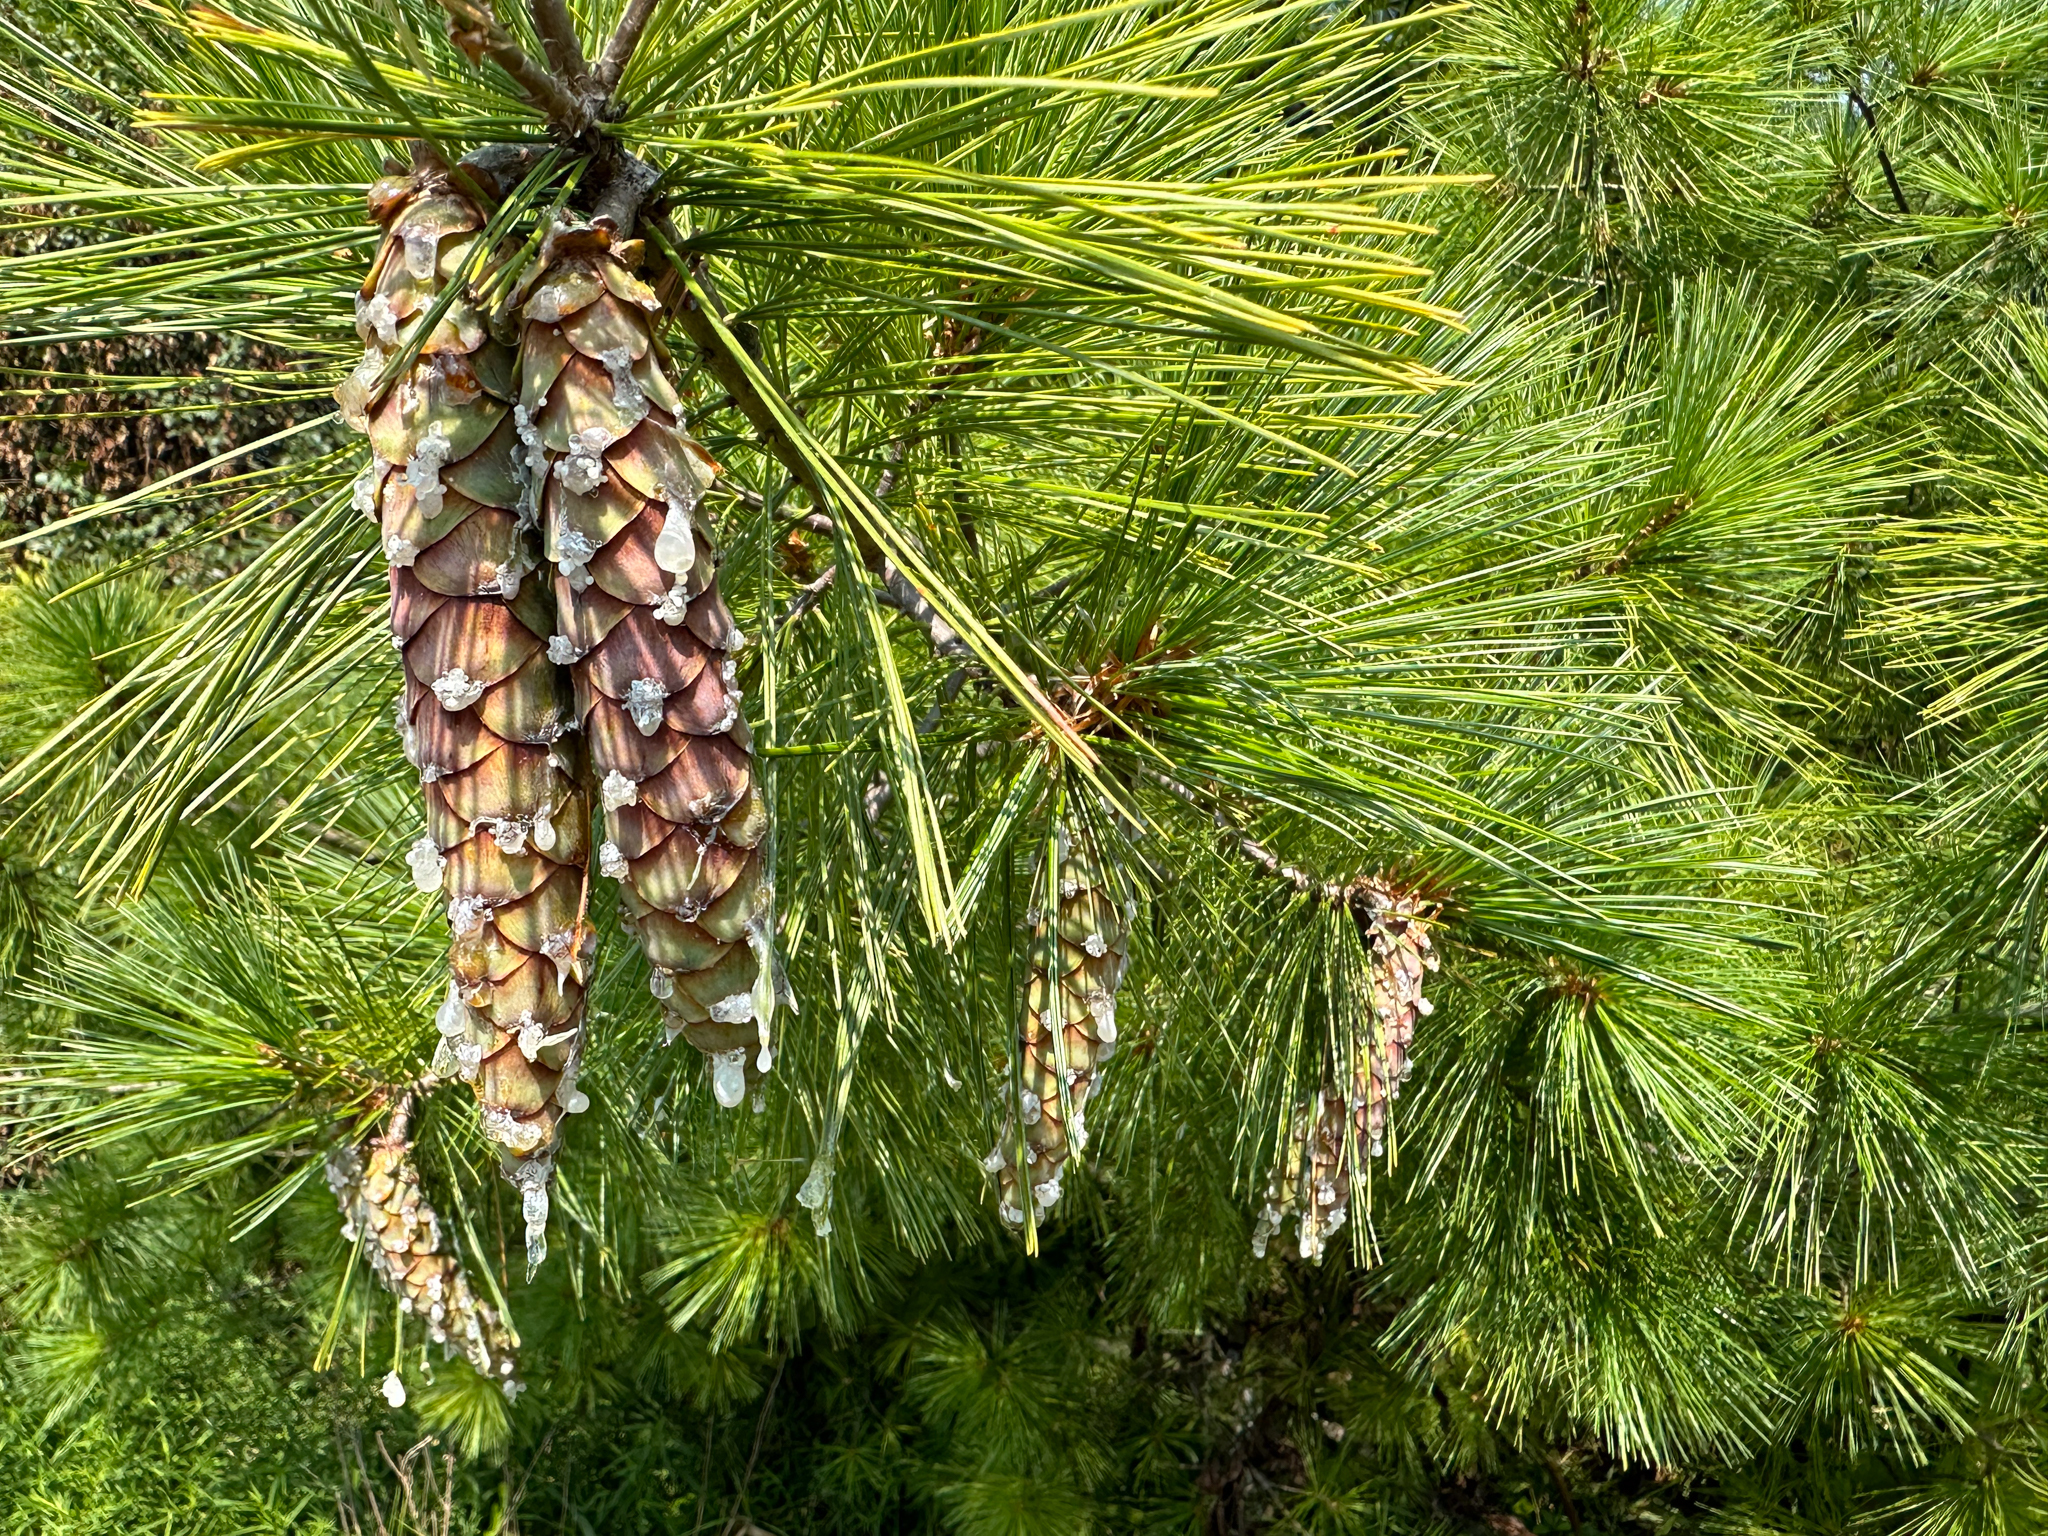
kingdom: Plantae
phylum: Tracheophyta
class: Pinopsida
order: Pinales
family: Pinaceae
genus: Pinus
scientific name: Pinus strobus
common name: Weymouth pine
